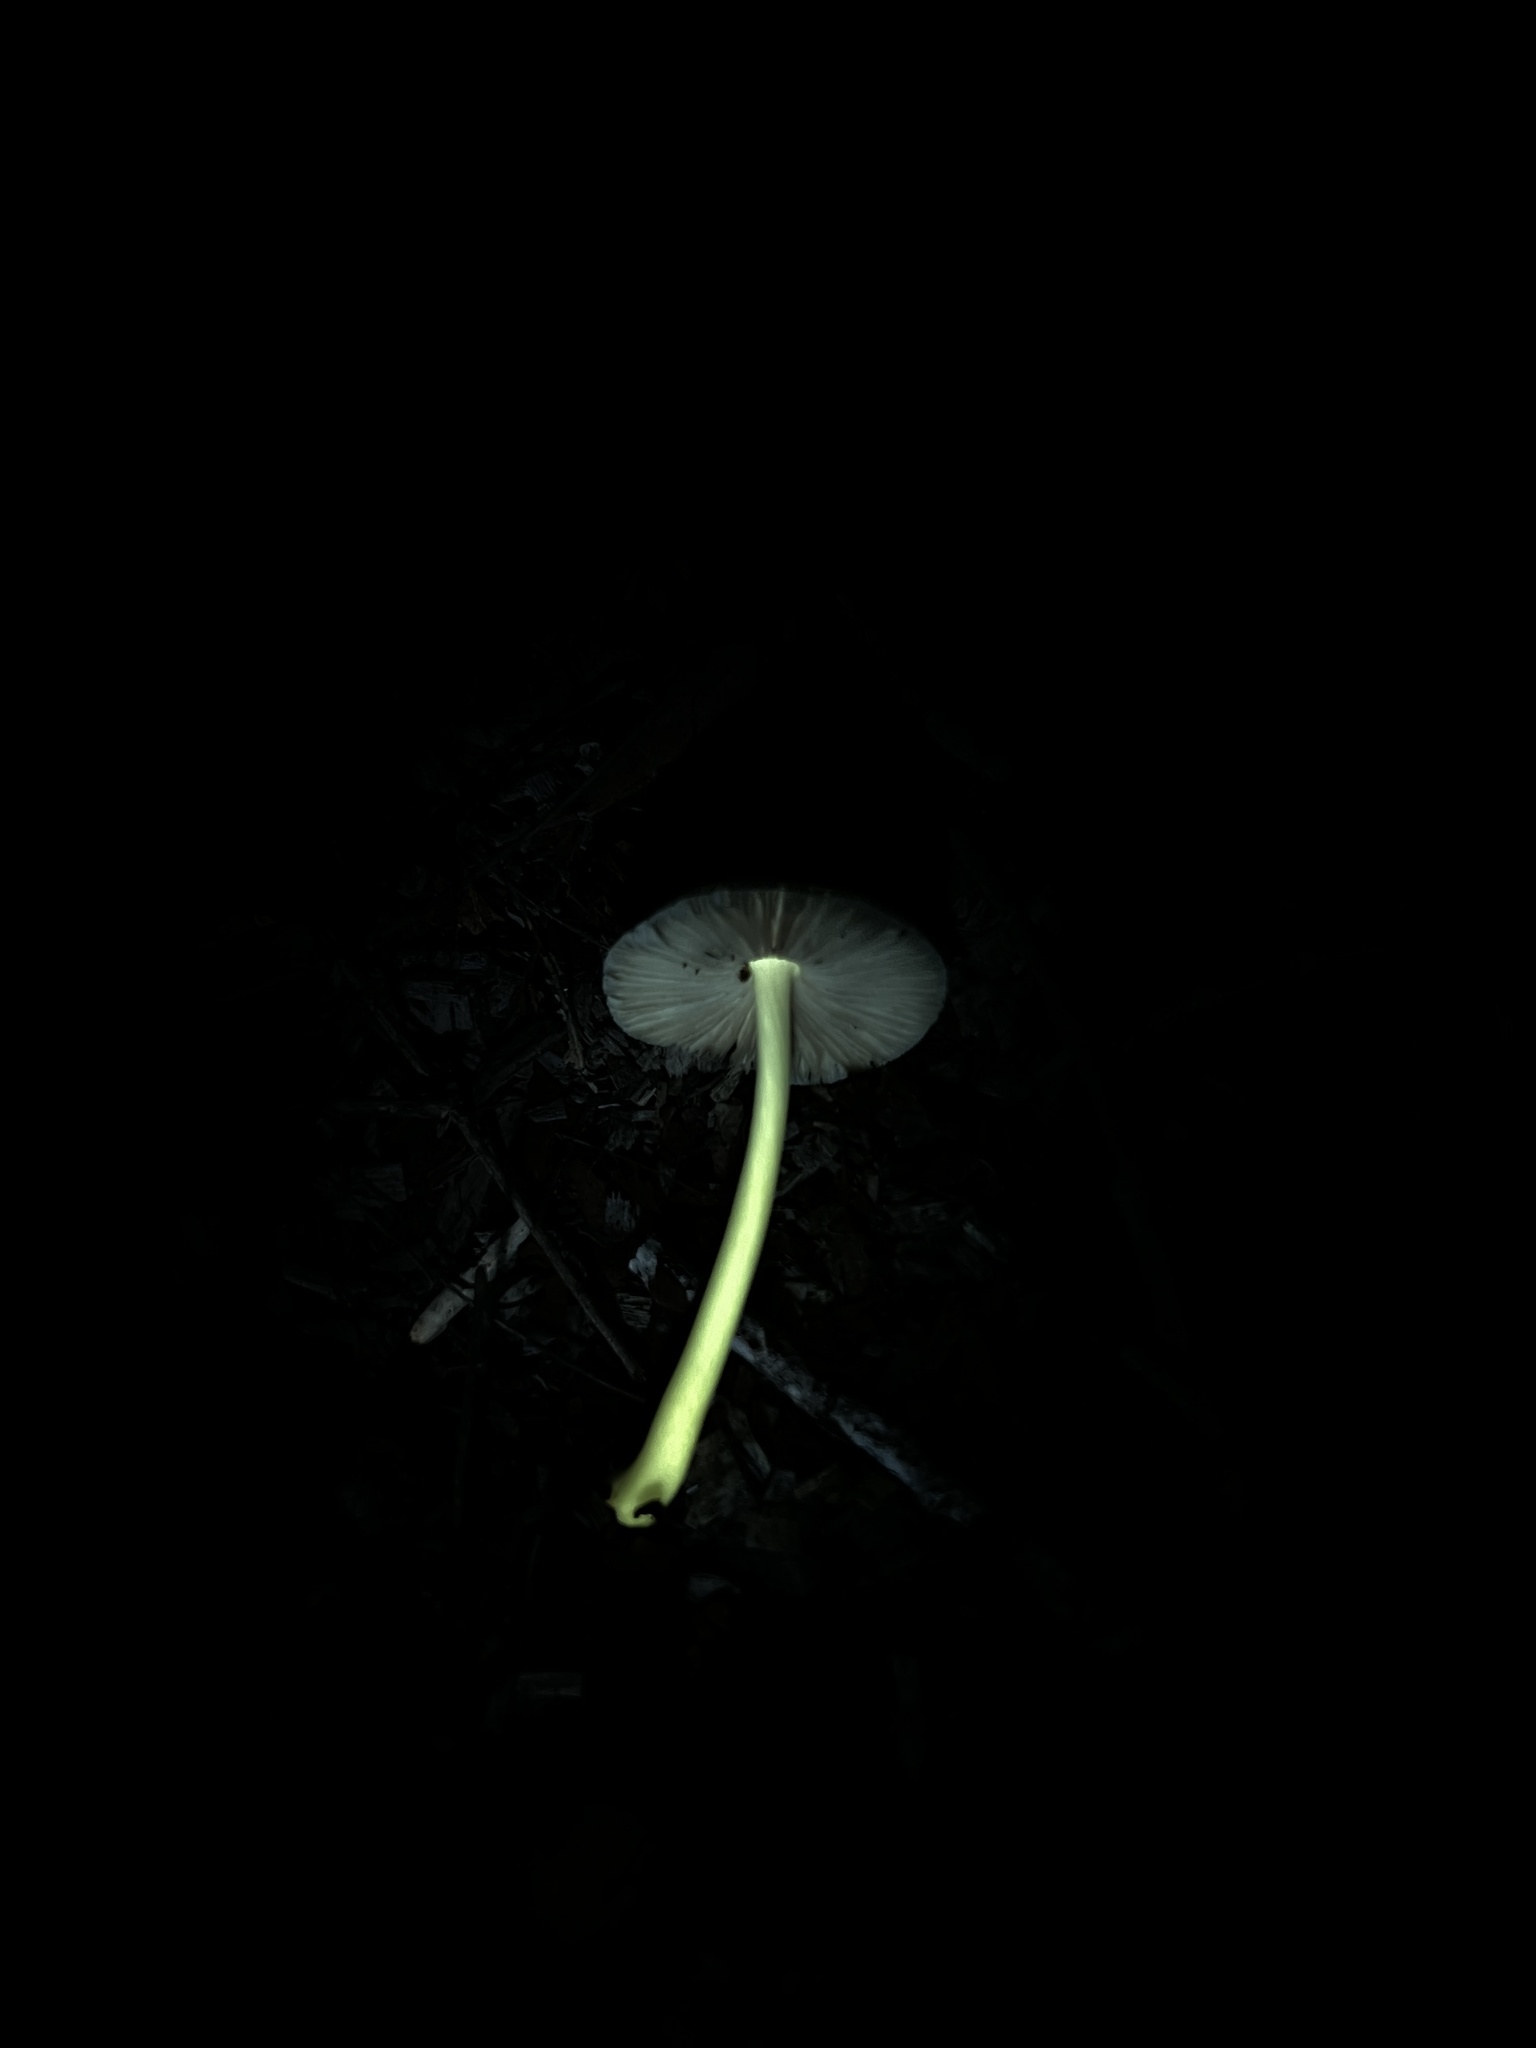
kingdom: Fungi
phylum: Basidiomycota
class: Agaricomycetes
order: Agaricales
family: Pluteaceae
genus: Pluteus
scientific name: Pluteus deceptivus
